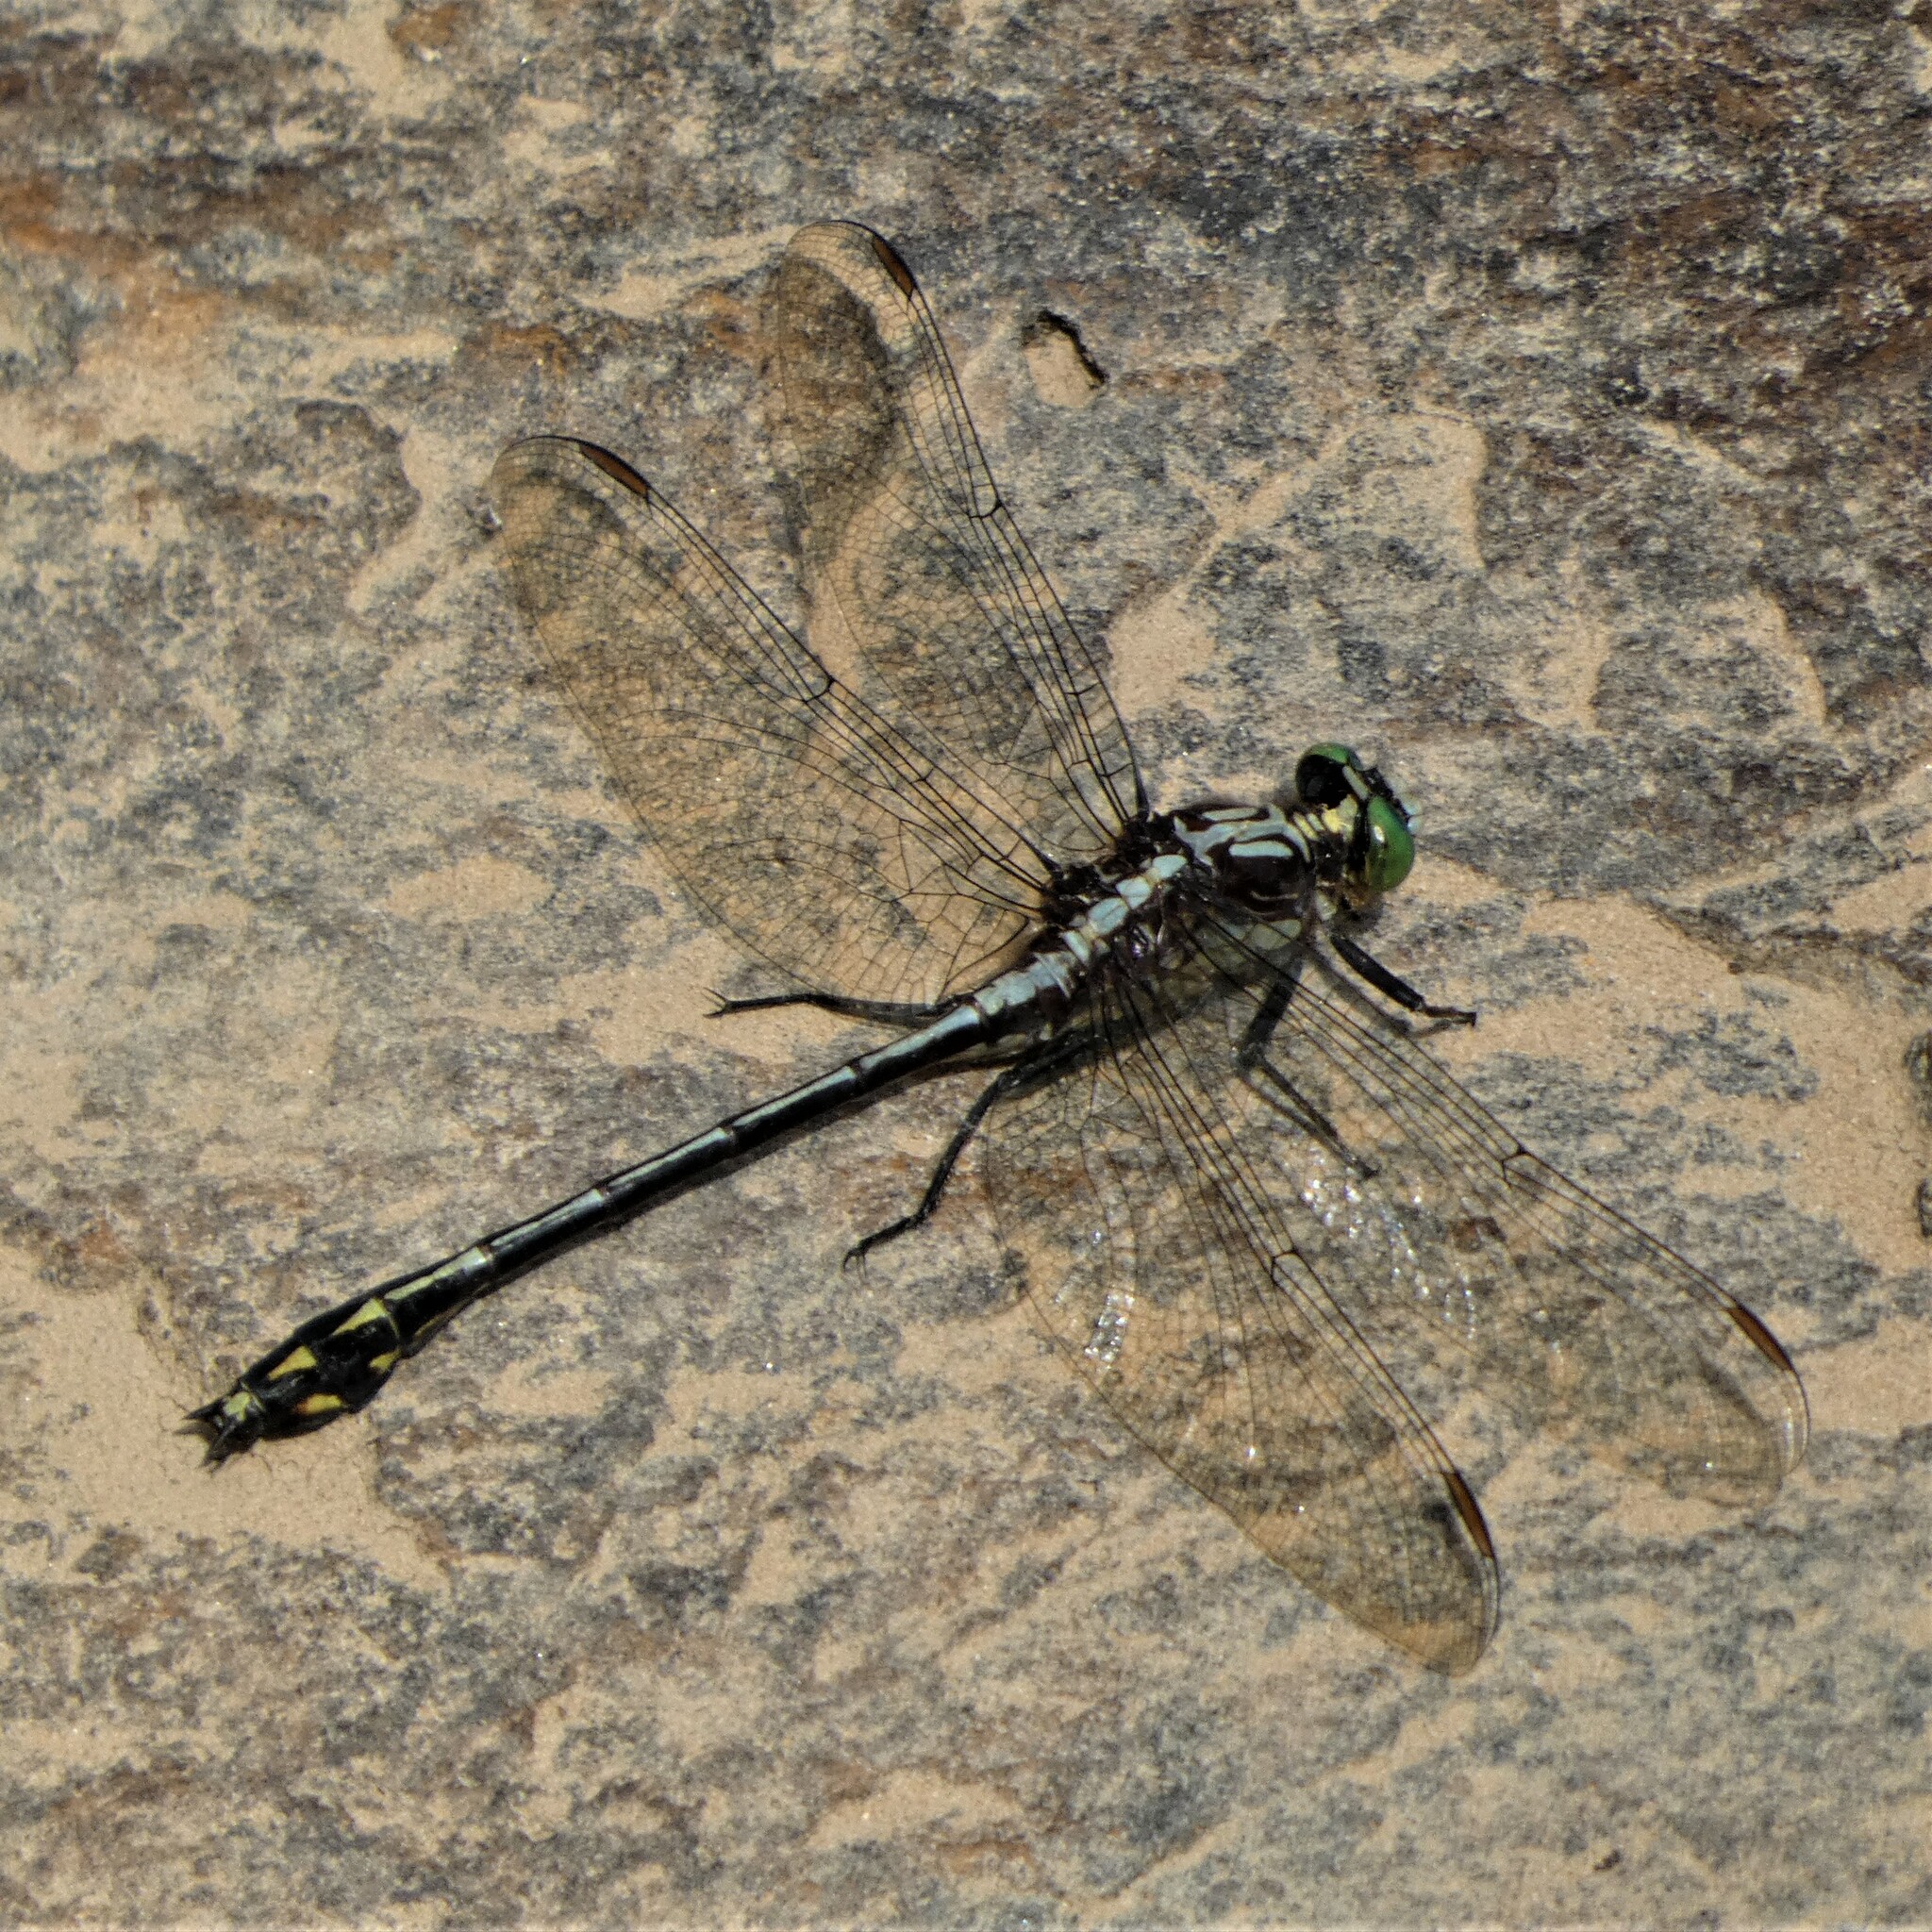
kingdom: Animalia
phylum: Arthropoda
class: Insecta
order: Odonata
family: Gomphidae
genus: Dromogomphus
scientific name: Dromogomphus spinosus
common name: Black-shouldered spinyleg
